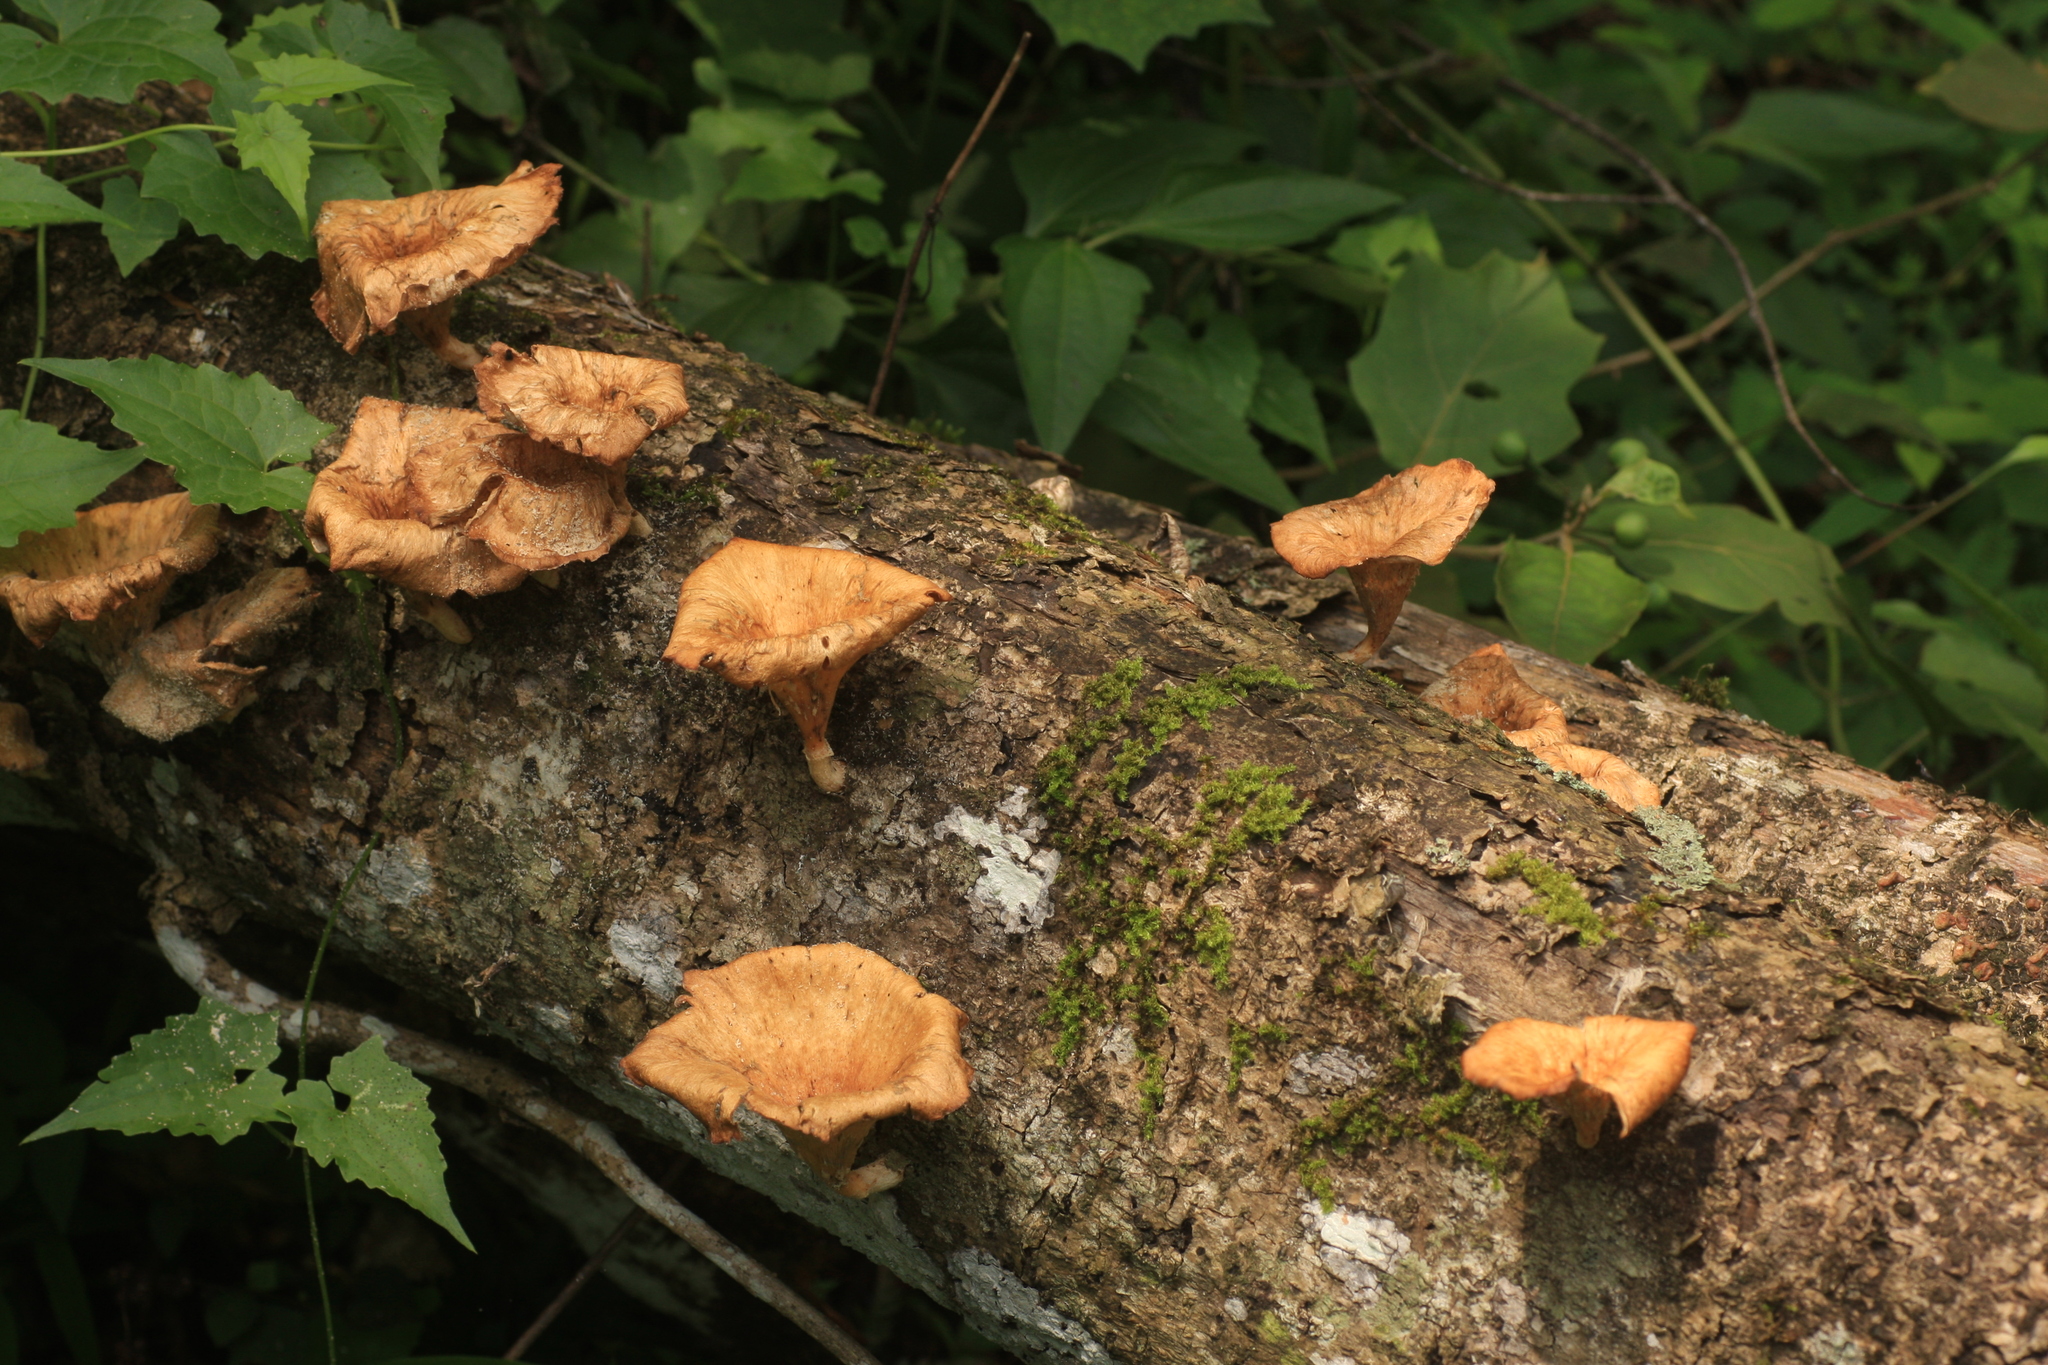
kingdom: Fungi
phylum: Basidiomycota
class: Agaricomycetes
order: Polyporales
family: Polyporaceae
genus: Lentinus
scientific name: Lentinus sajor-caju
